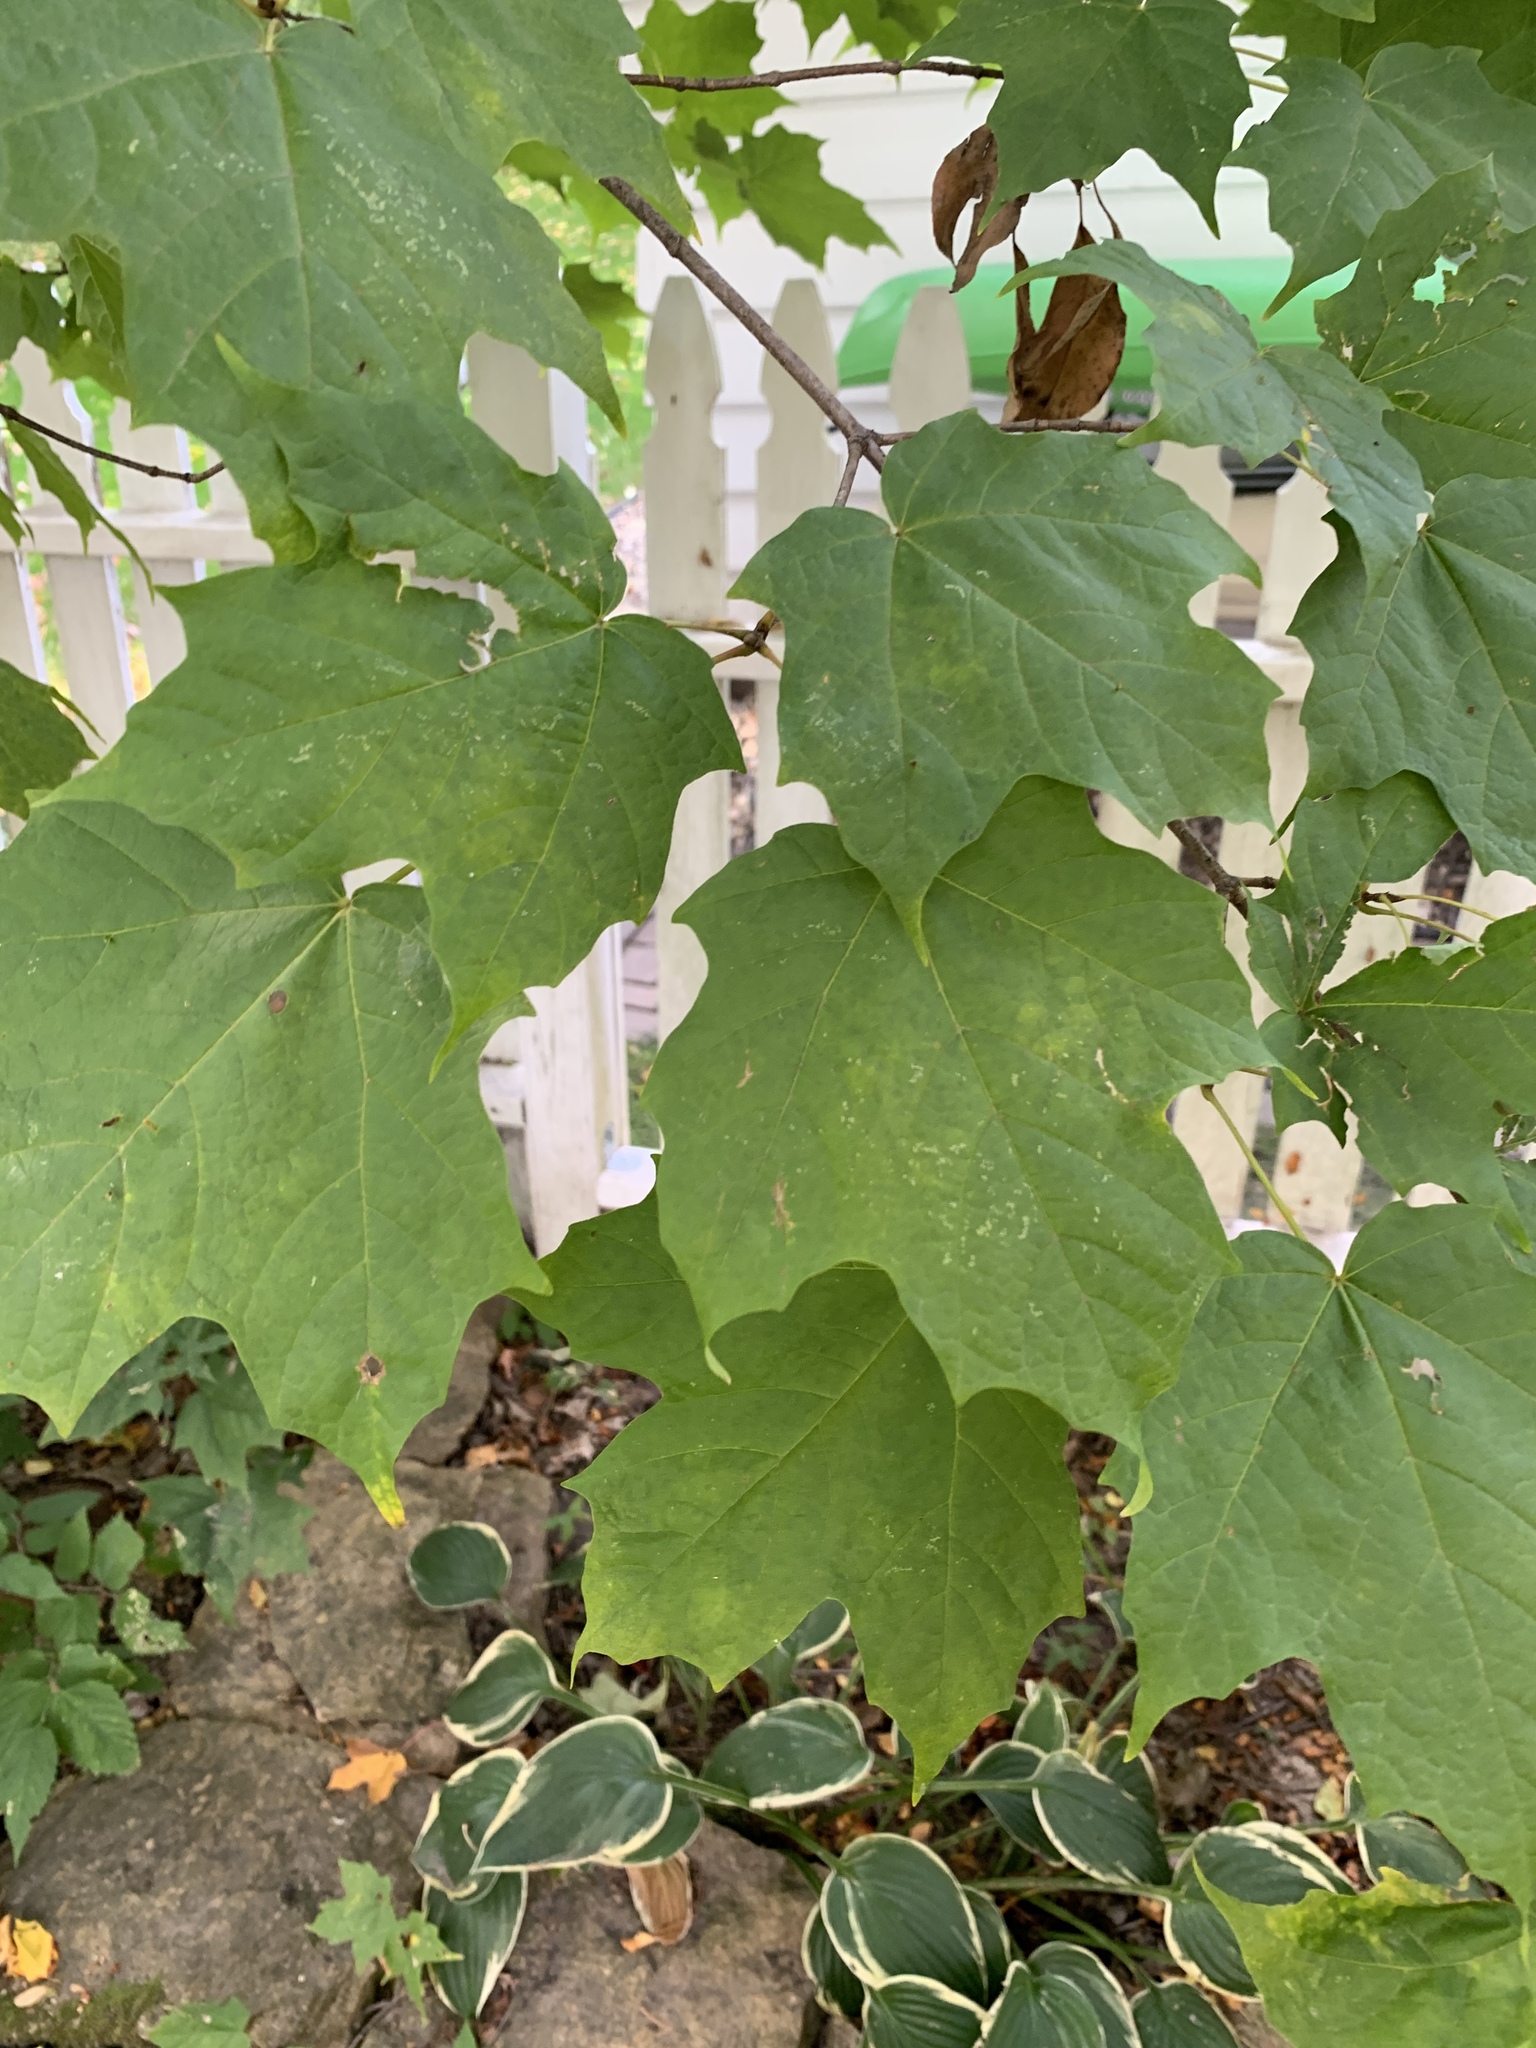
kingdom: Plantae
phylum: Tracheophyta
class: Magnoliopsida
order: Sapindales
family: Sapindaceae
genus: Acer
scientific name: Acer saccharum
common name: Sugar maple
